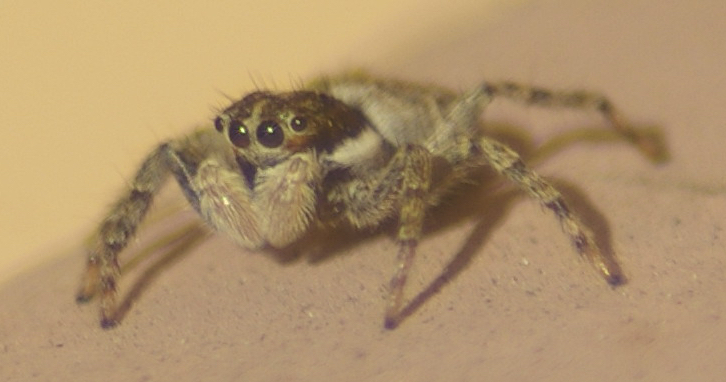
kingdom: Animalia
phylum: Arthropoda
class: Arachnida
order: Araneae
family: Salticidae
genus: Menemerus
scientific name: Menemerus semilimbatus
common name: Jumping spider
